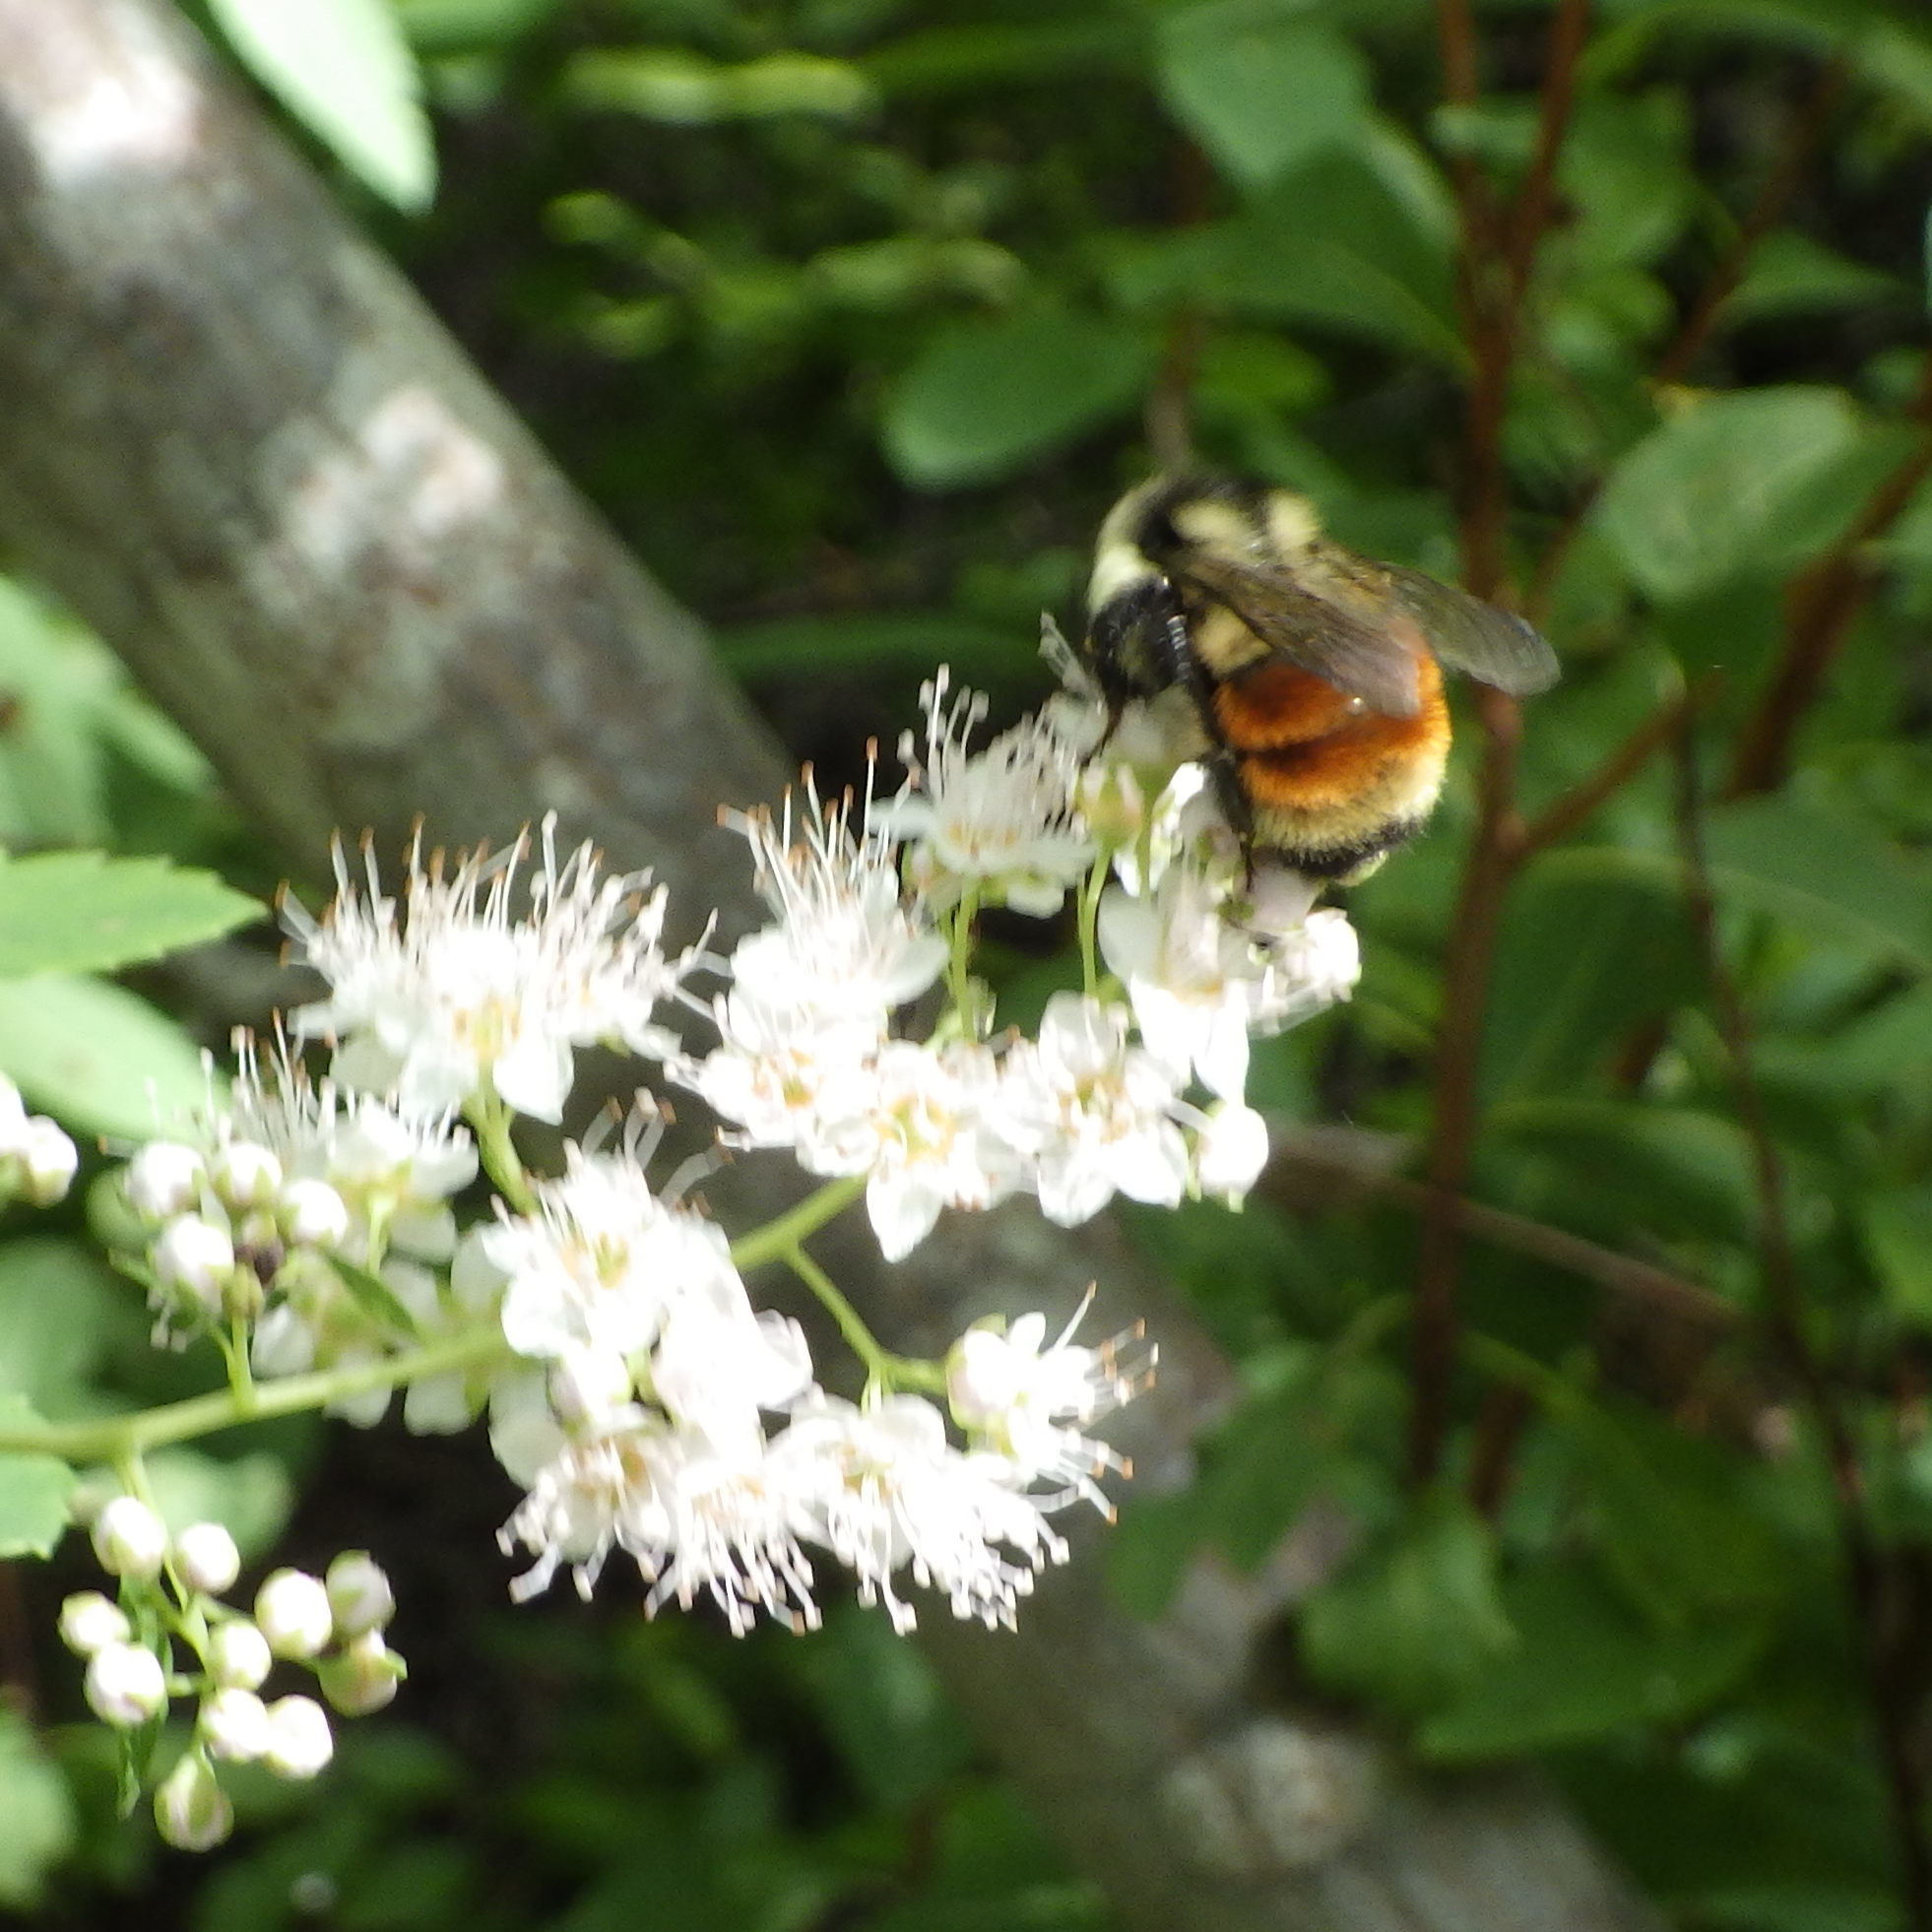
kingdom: Animalia
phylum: Arthropoda
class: Insecta
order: Hymenoptera
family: Apidae
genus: Bombus
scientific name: Bombus ternarius
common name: Tri-colored bumble bee
